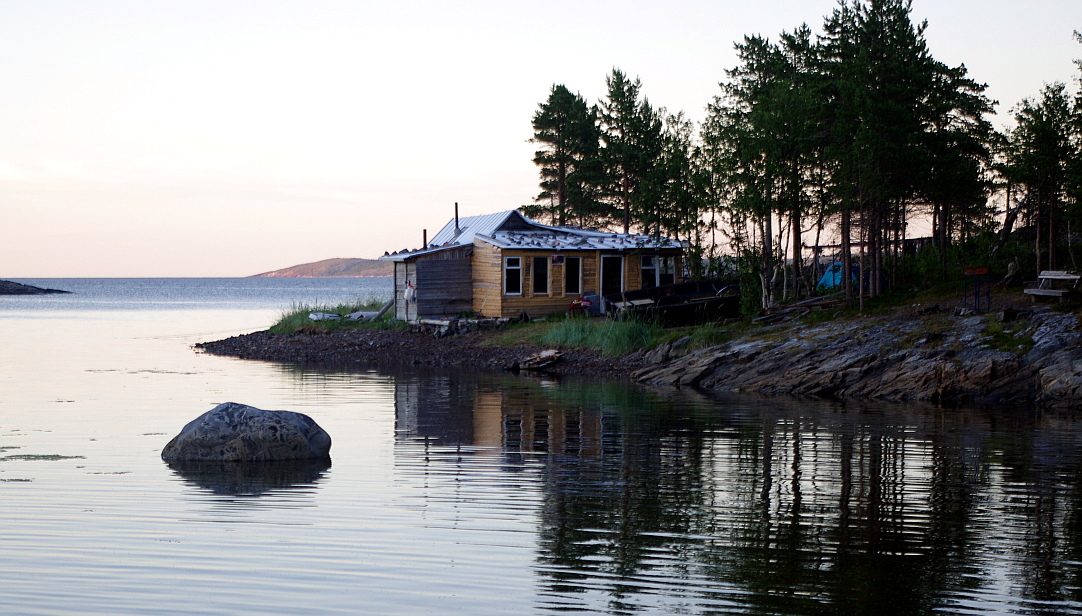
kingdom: Plantae
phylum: Tracheophyta
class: Pinopsida
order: Pinales
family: Pinaceae
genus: Pinus
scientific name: Pinus sylvestris
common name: Scots pine
